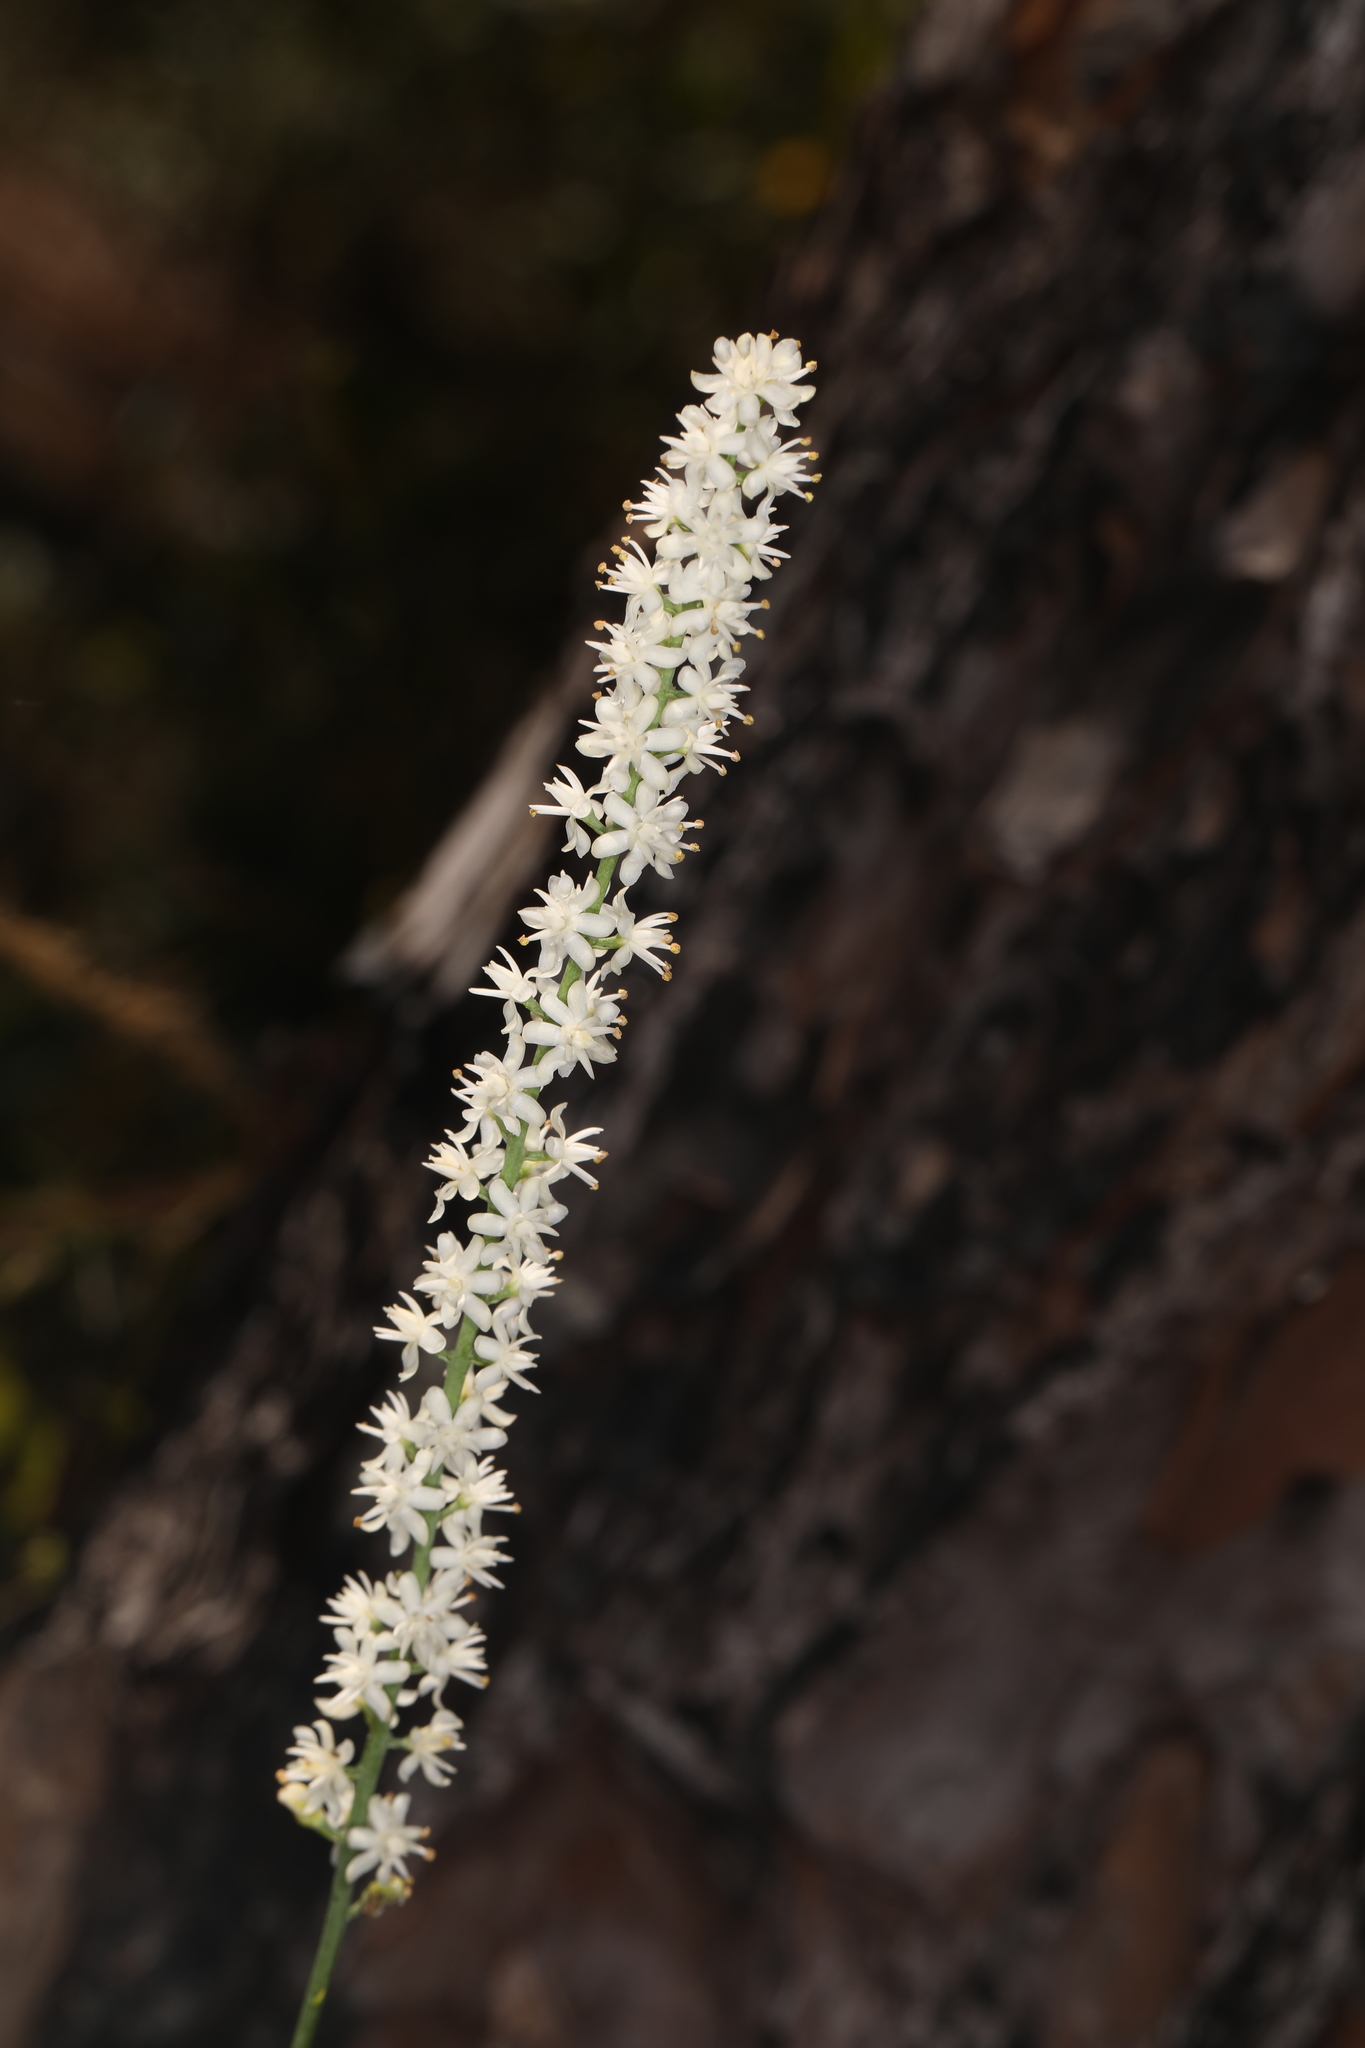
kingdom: Plantae
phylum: Tracheophyta
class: Liliopsida
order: Alismatales
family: Tofieldiaceae
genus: Tofieldia
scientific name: Tofieldia glabra
